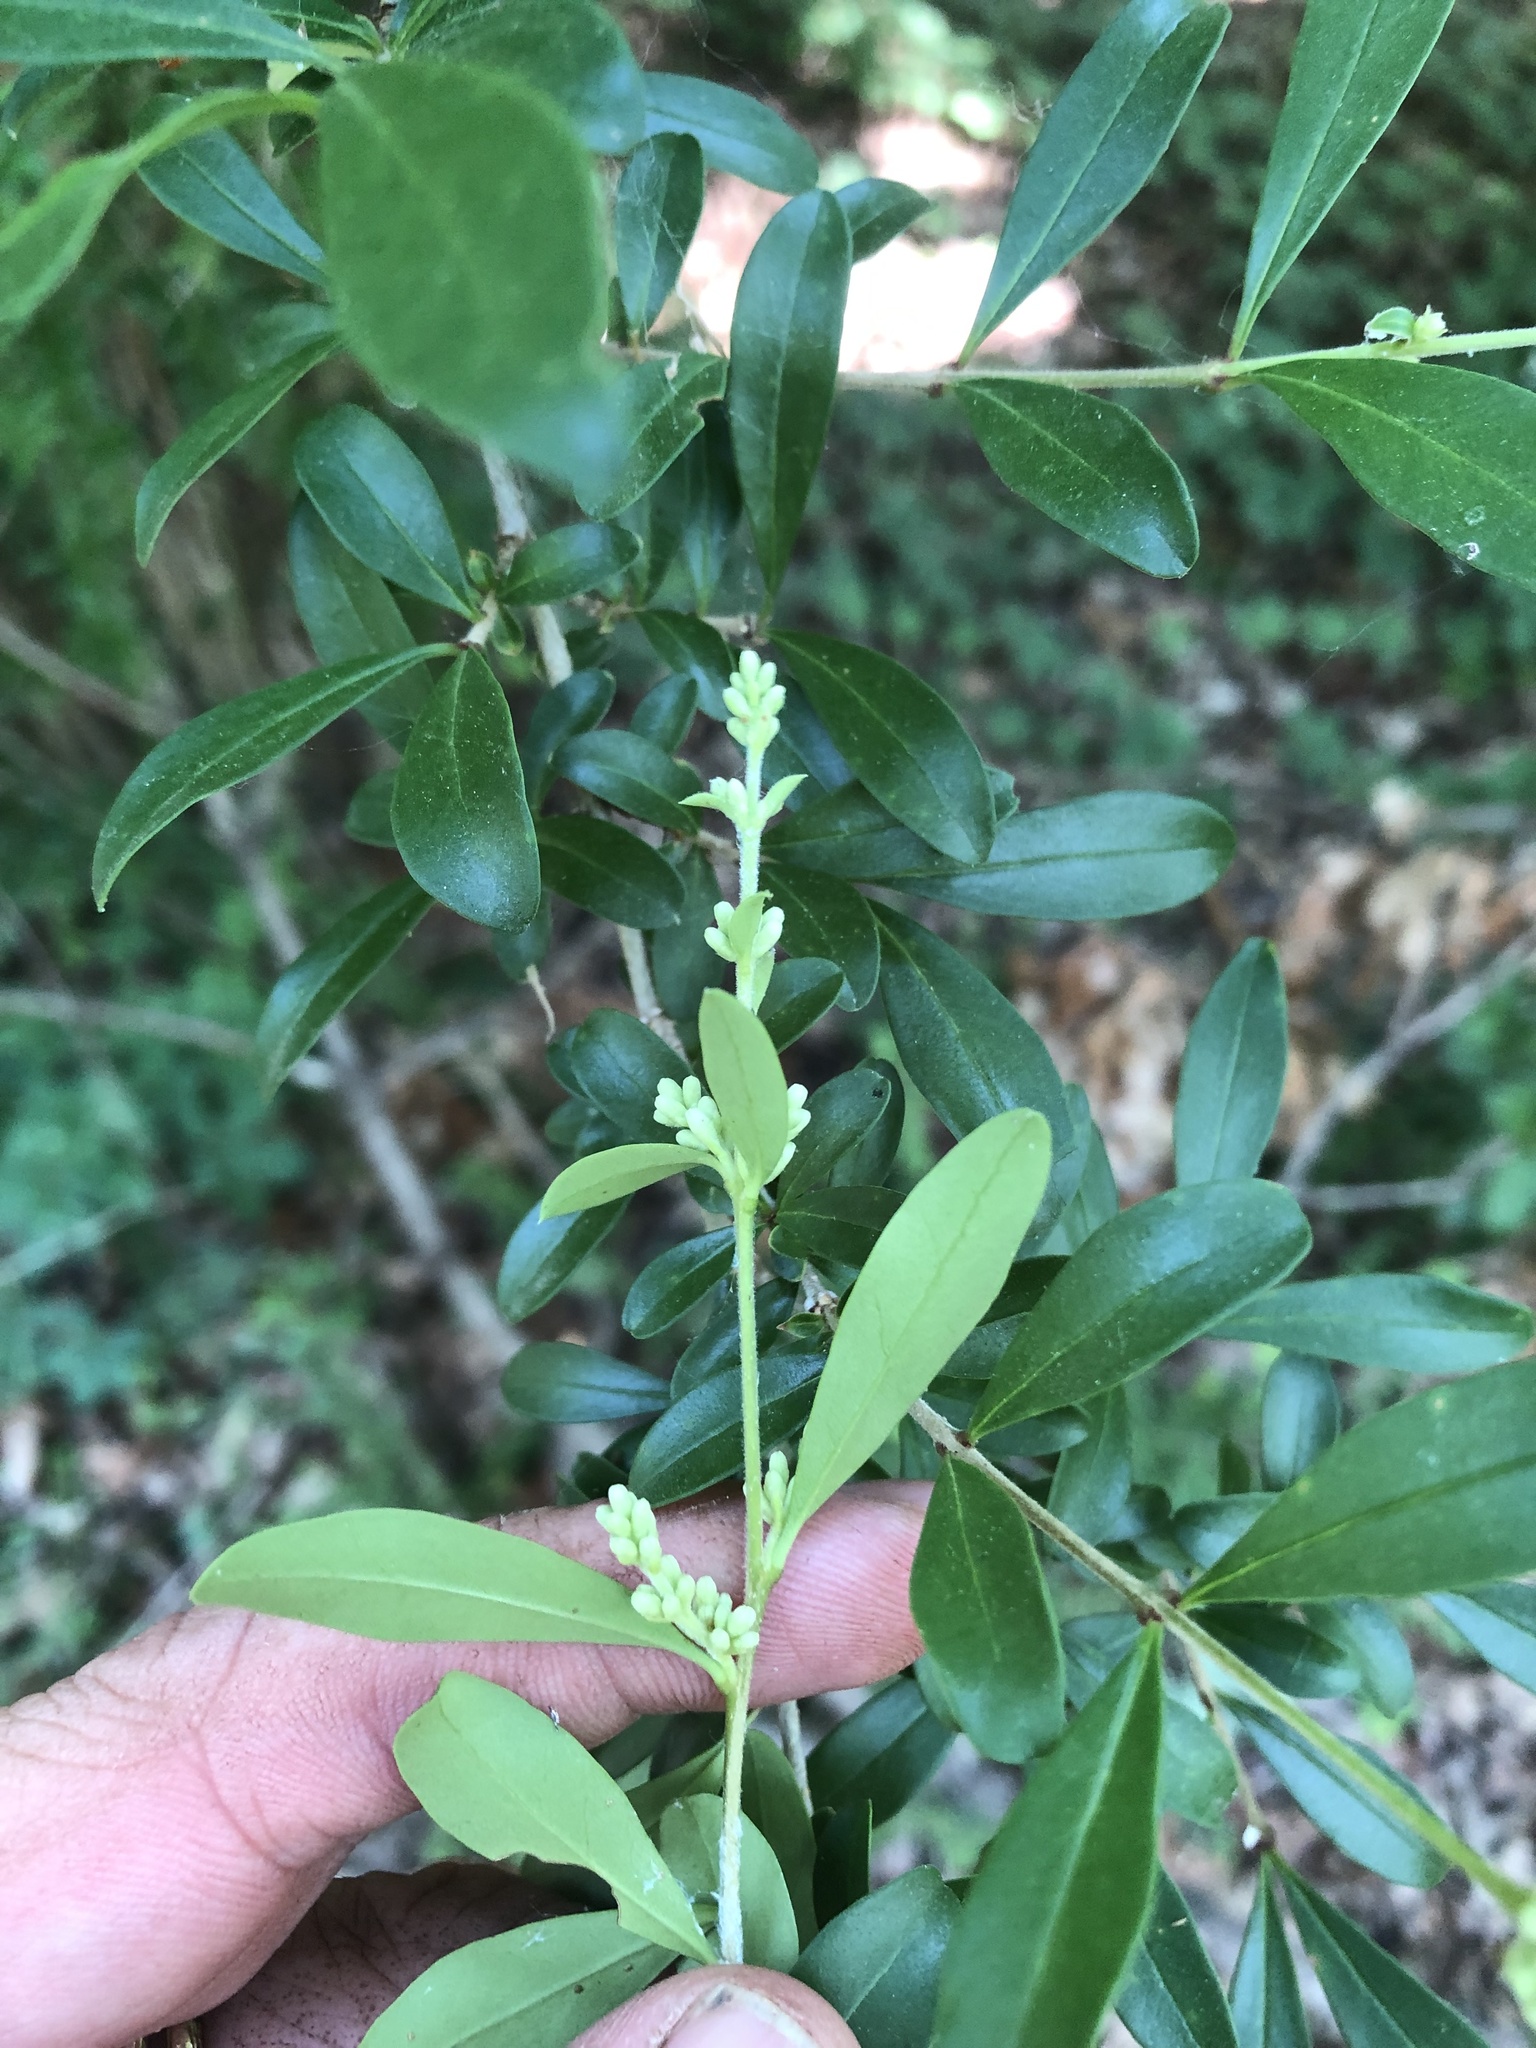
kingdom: Plantae
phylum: Tracheophyta
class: Magnoliopsida
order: Lamiales
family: Oleaceae
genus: Ligustrum
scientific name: Ligustrum quihoui
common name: Waxyleaf privet
